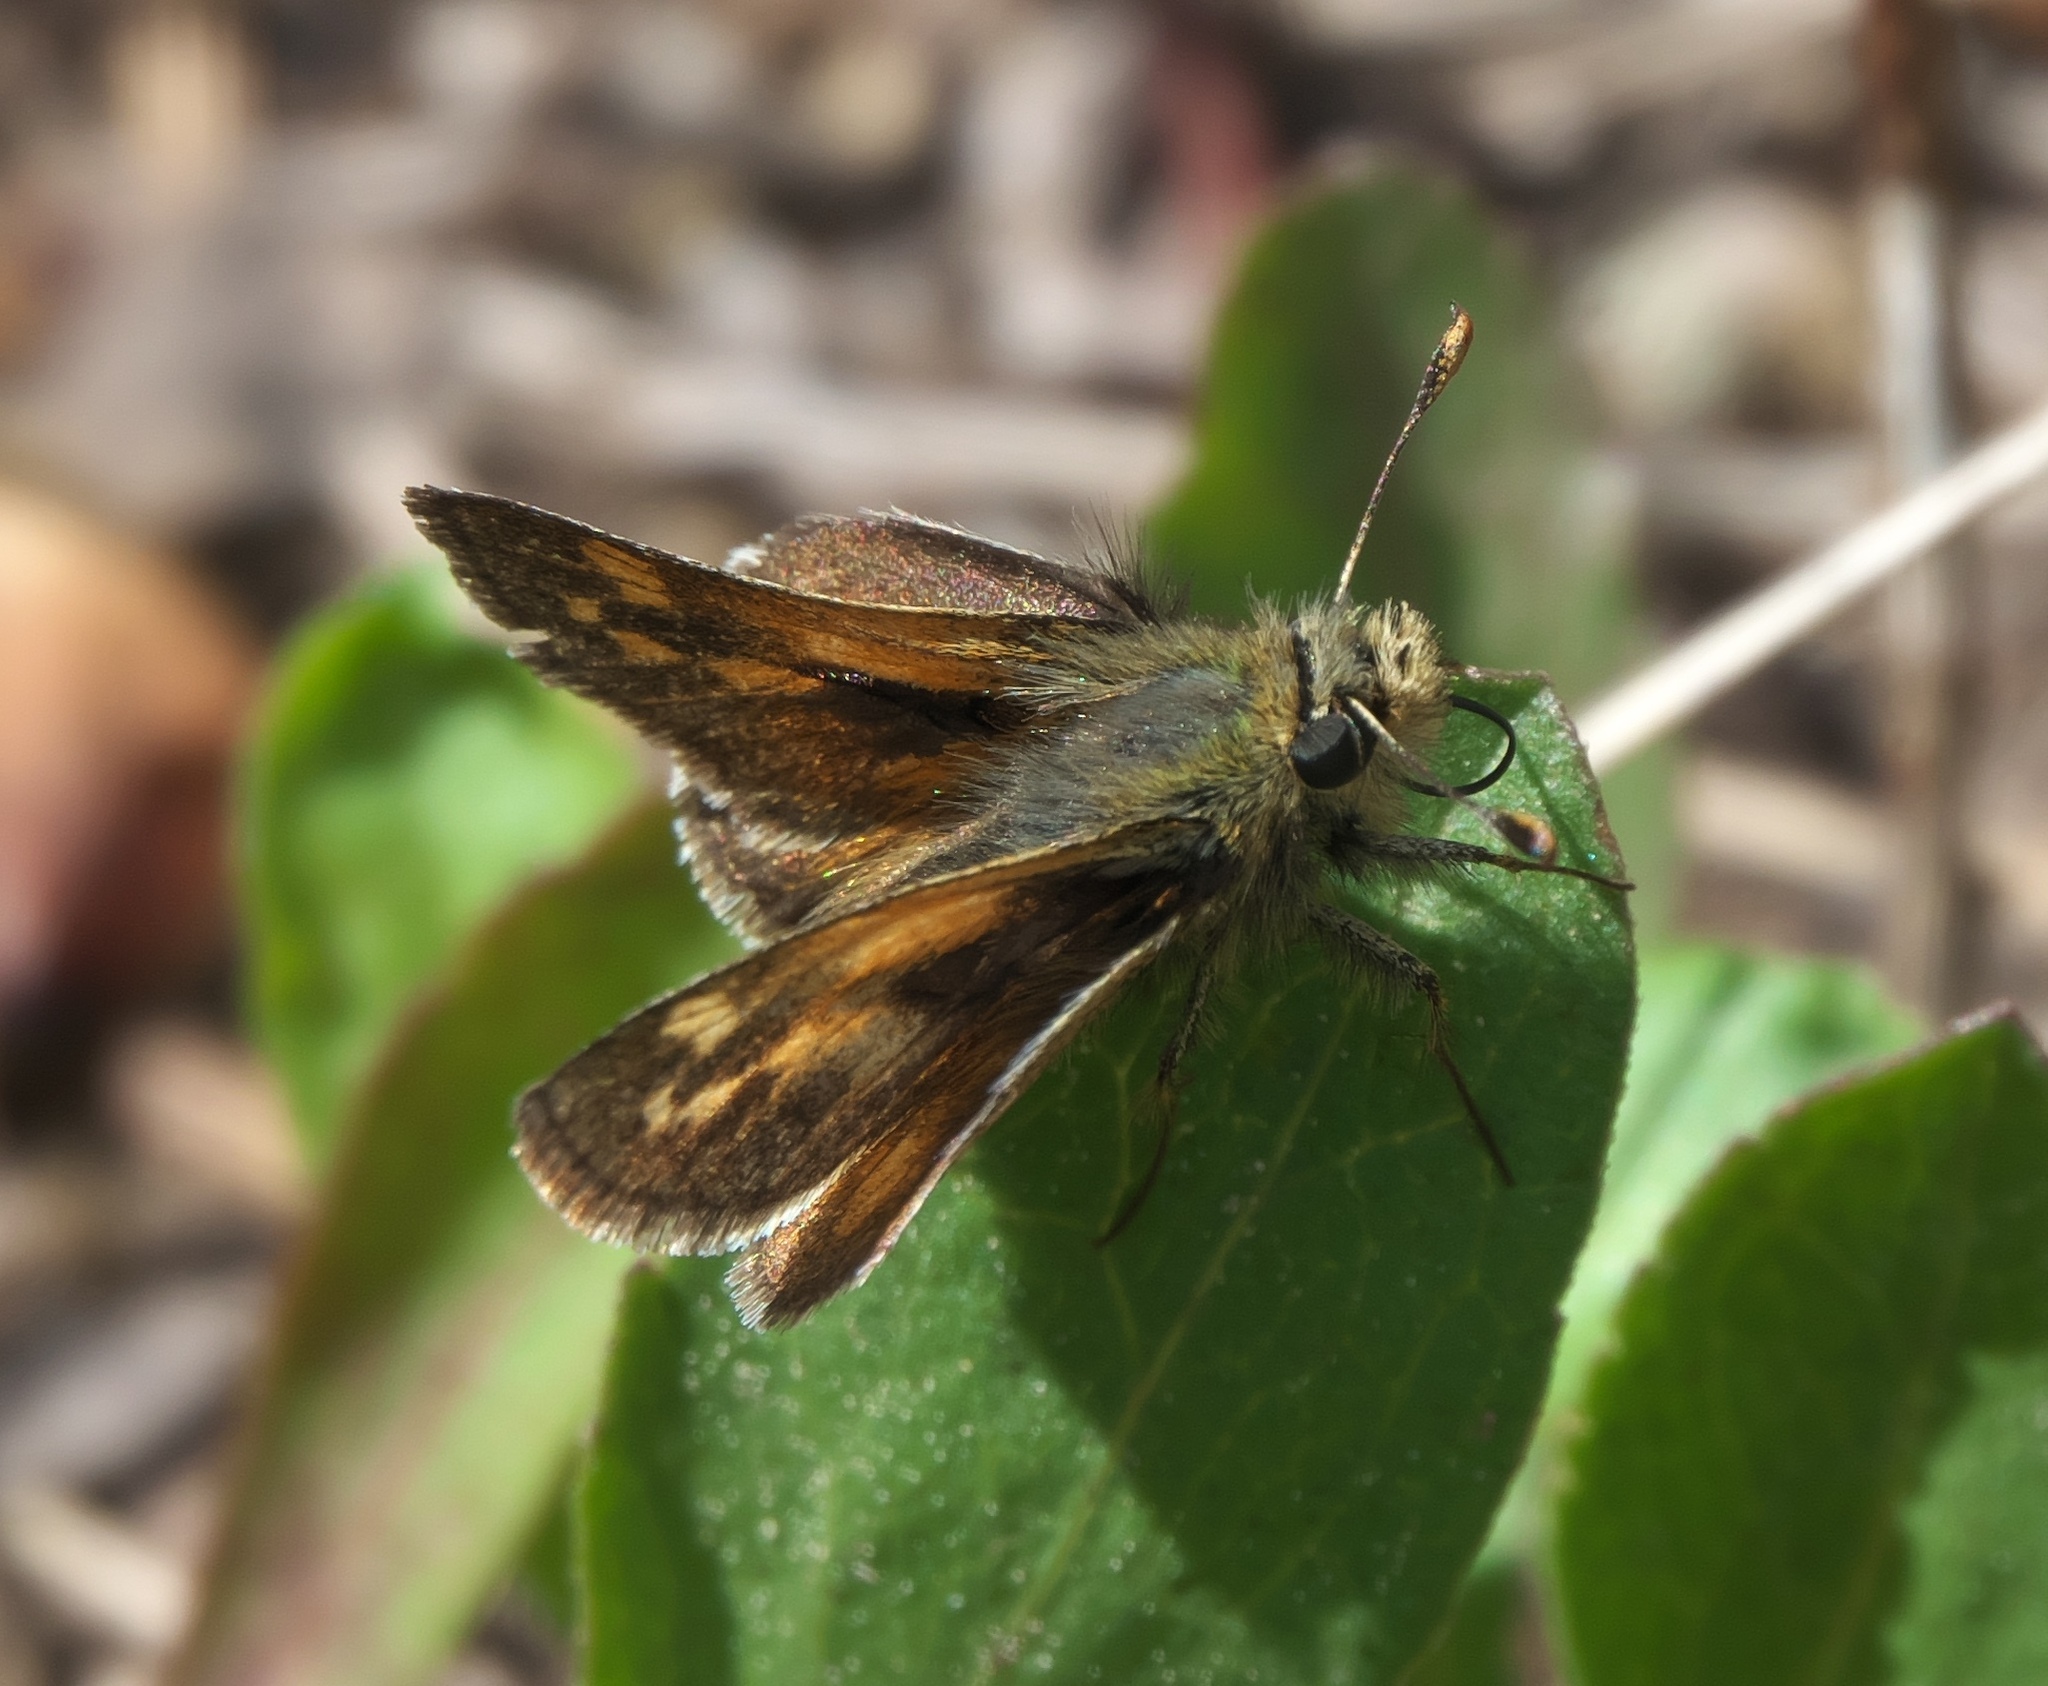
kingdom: Animalia
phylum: Arthropoda
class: Insecta
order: Lepidoptera
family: Hesperiidae
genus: Polites
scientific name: Polites sabuleti
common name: Sandhill skipper
